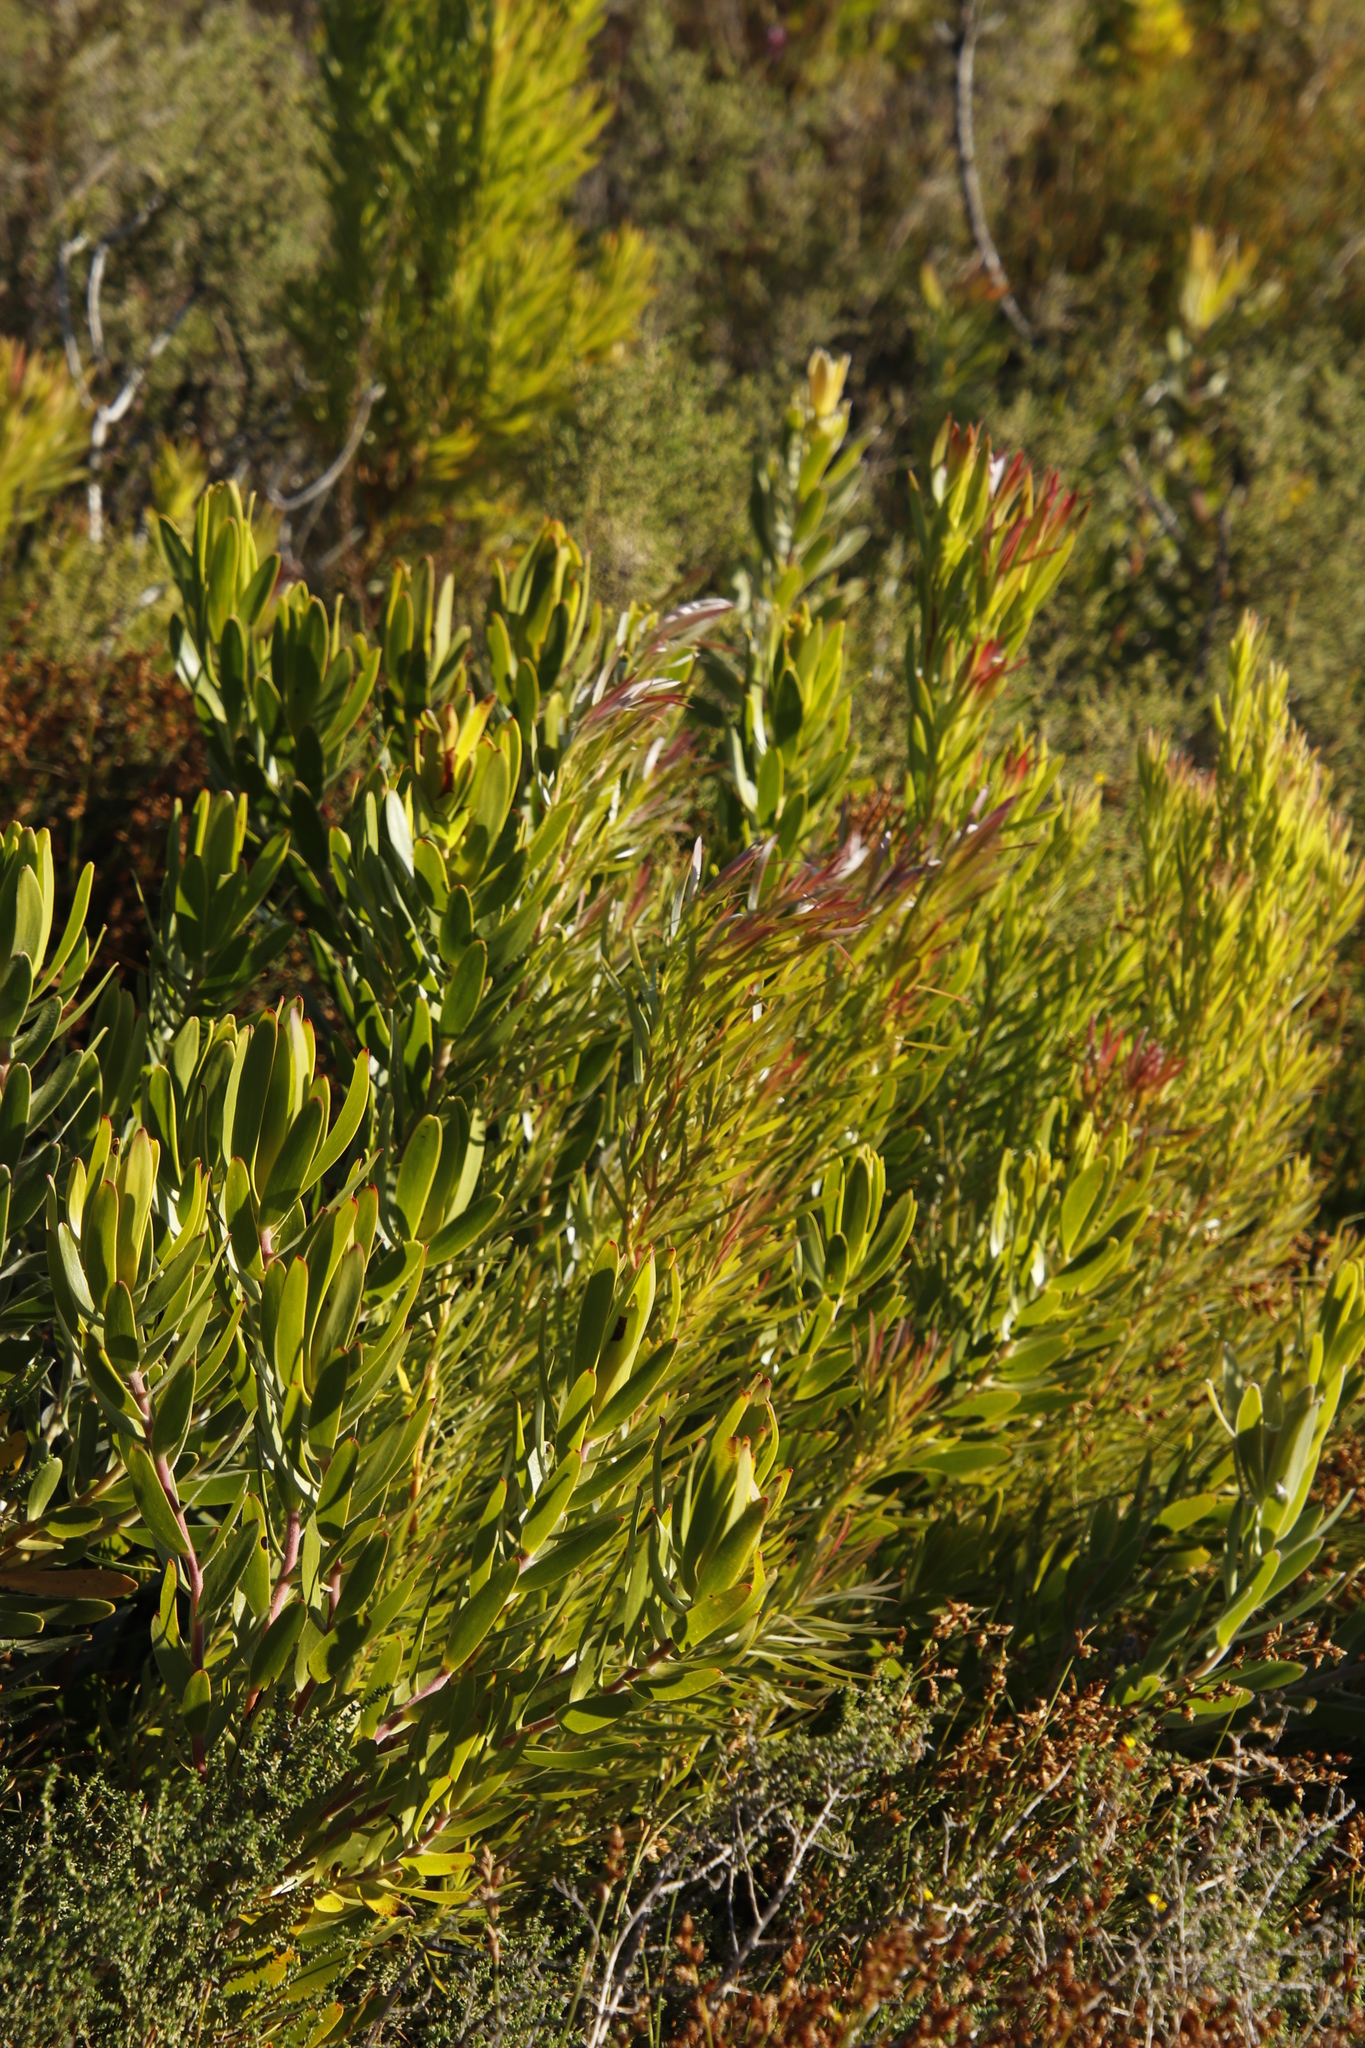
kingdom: Plantae
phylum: Tracheophyta
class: Magnoliopsida
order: Proteales
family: Proteaceae
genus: Leucadendron
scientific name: Leucadendron xanthoconus
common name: Sickle-leaf conebush
